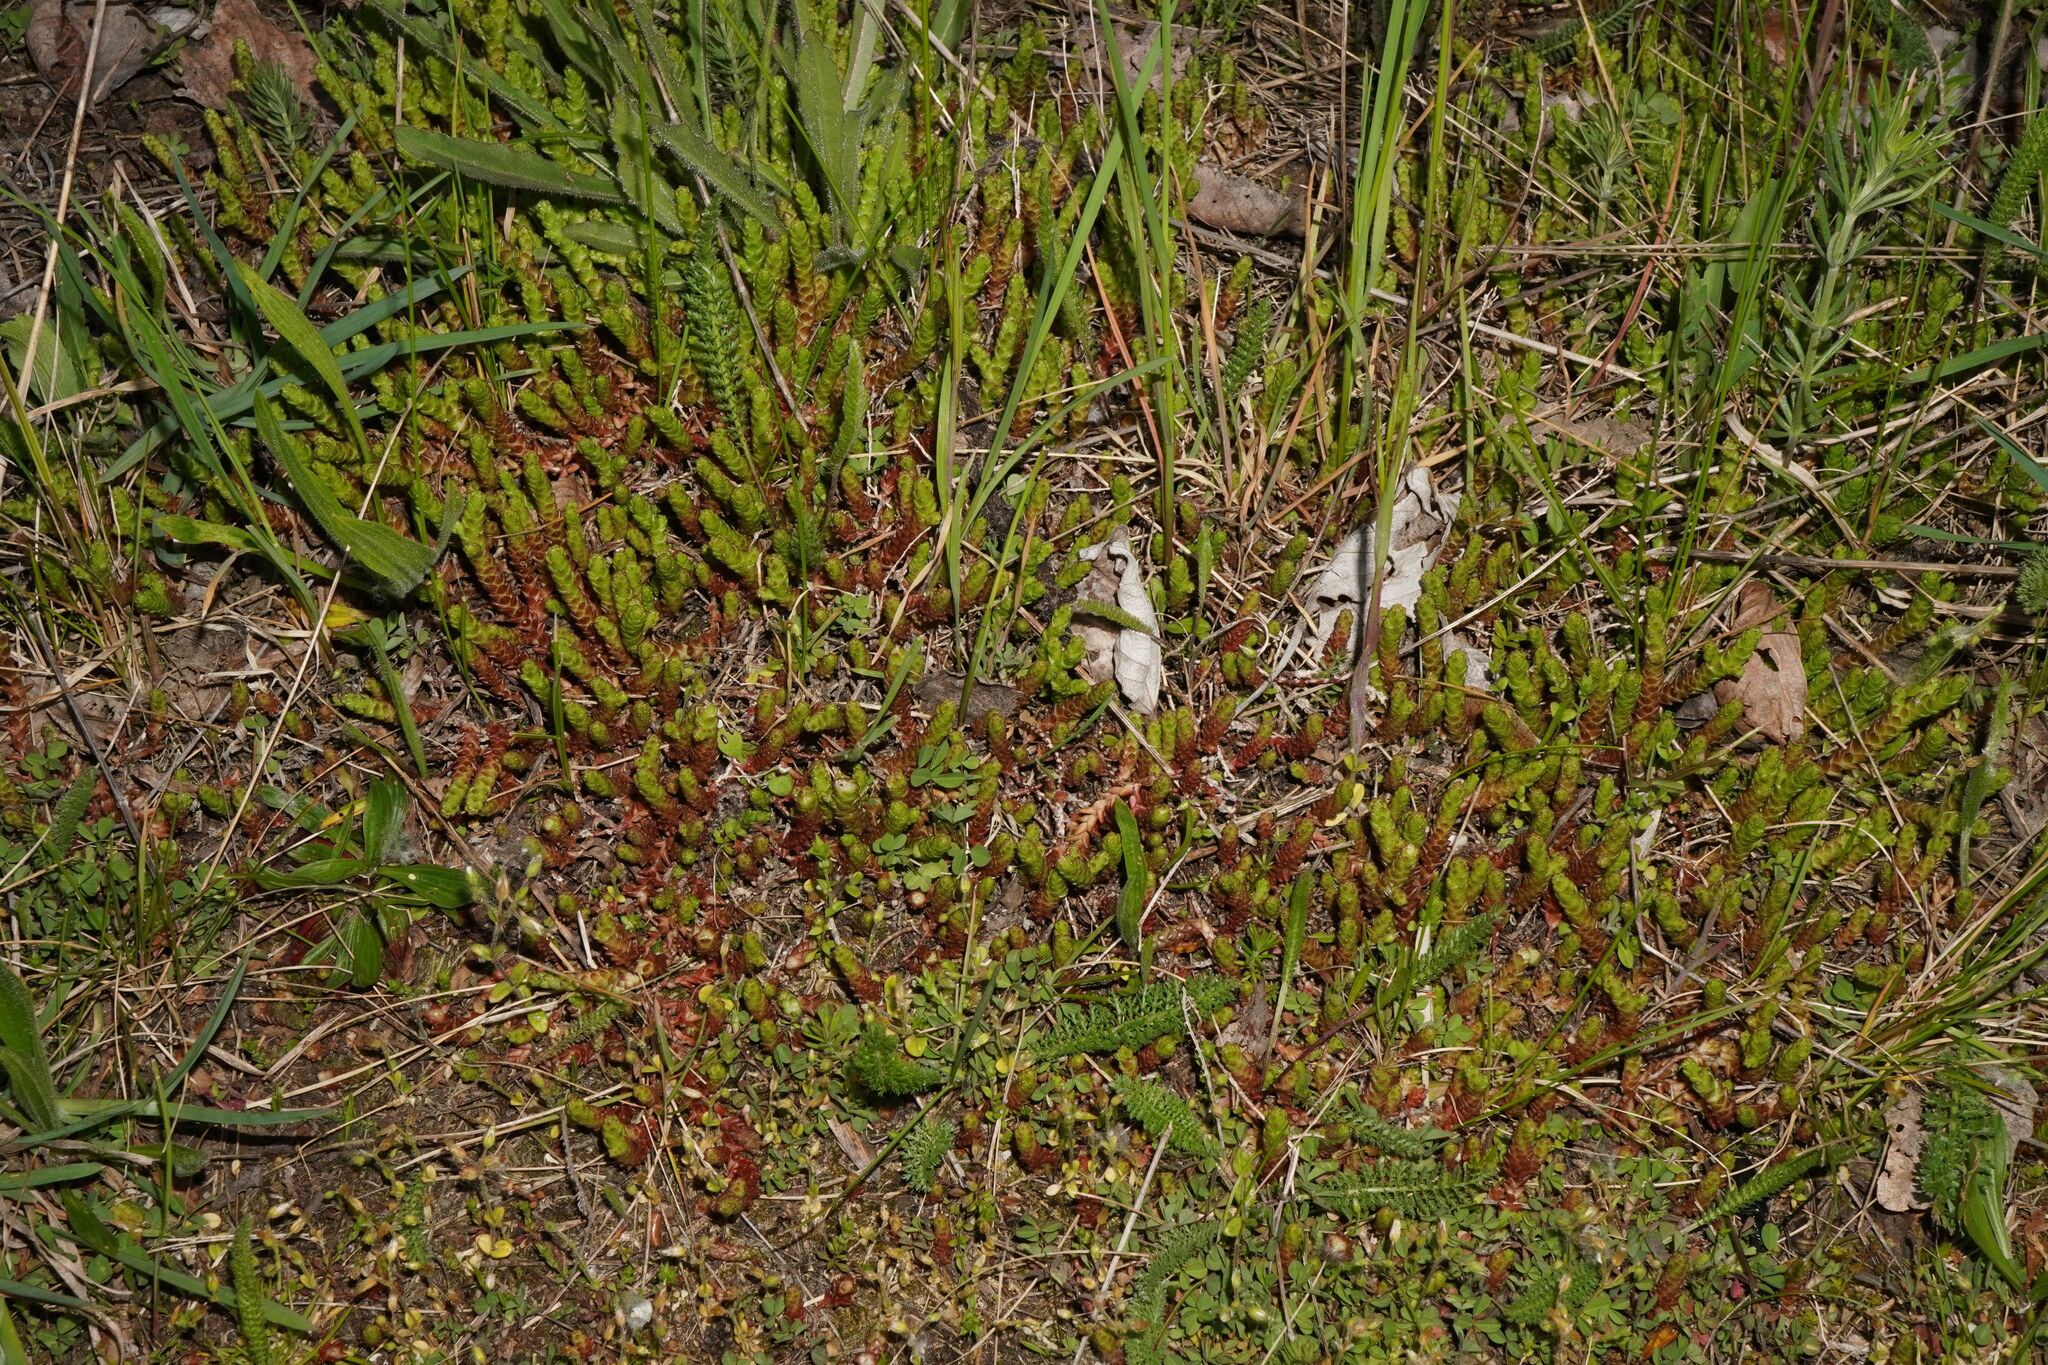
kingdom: Plantae
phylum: Tracheophyta
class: Magnoliopsida
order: Saxifragales
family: Crassulaceae
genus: Sedum
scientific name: Sedum acre
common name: Biting stonecrop
